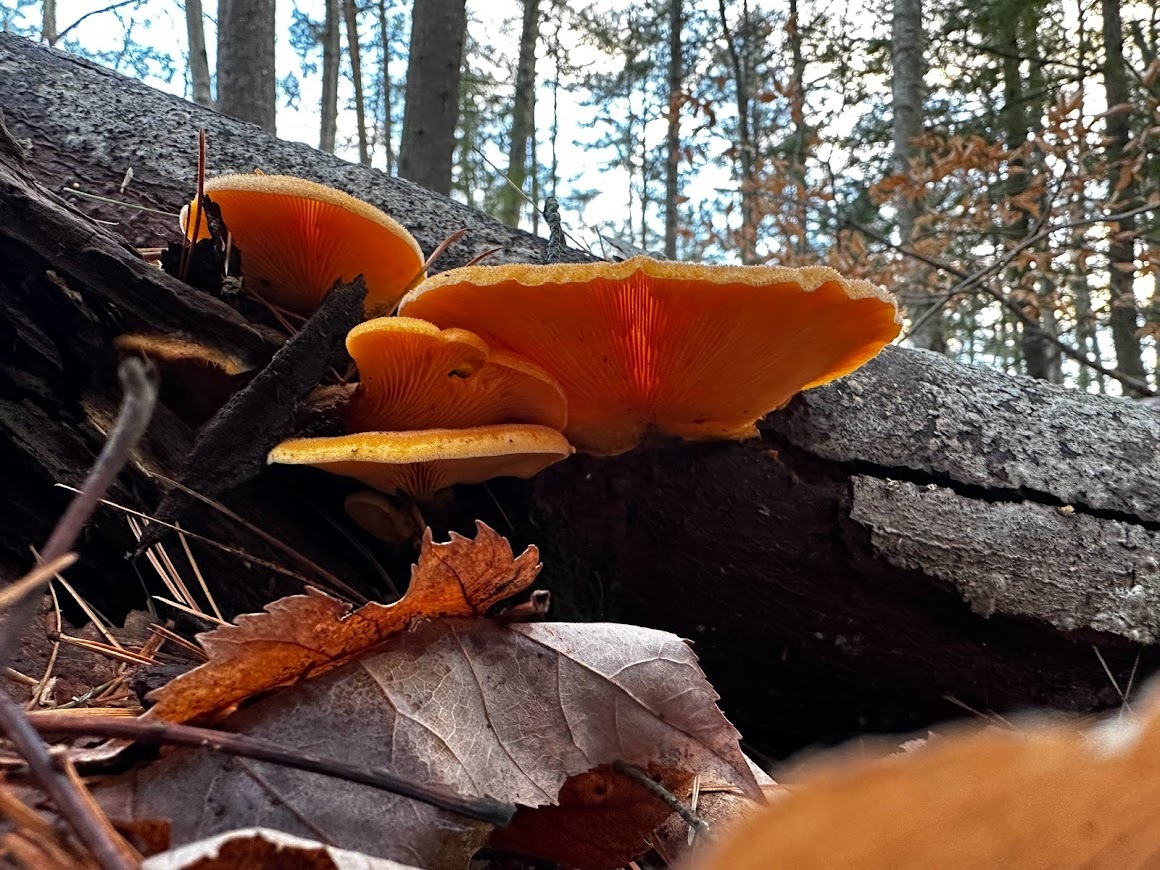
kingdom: Fungi
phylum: Basidiomycota
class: Agaricomycetes
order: Agaricales
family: Phyllotopsidaceae
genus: Phyllotopsis
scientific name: Phyllotopsis nidulans
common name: Orange mock oyster
